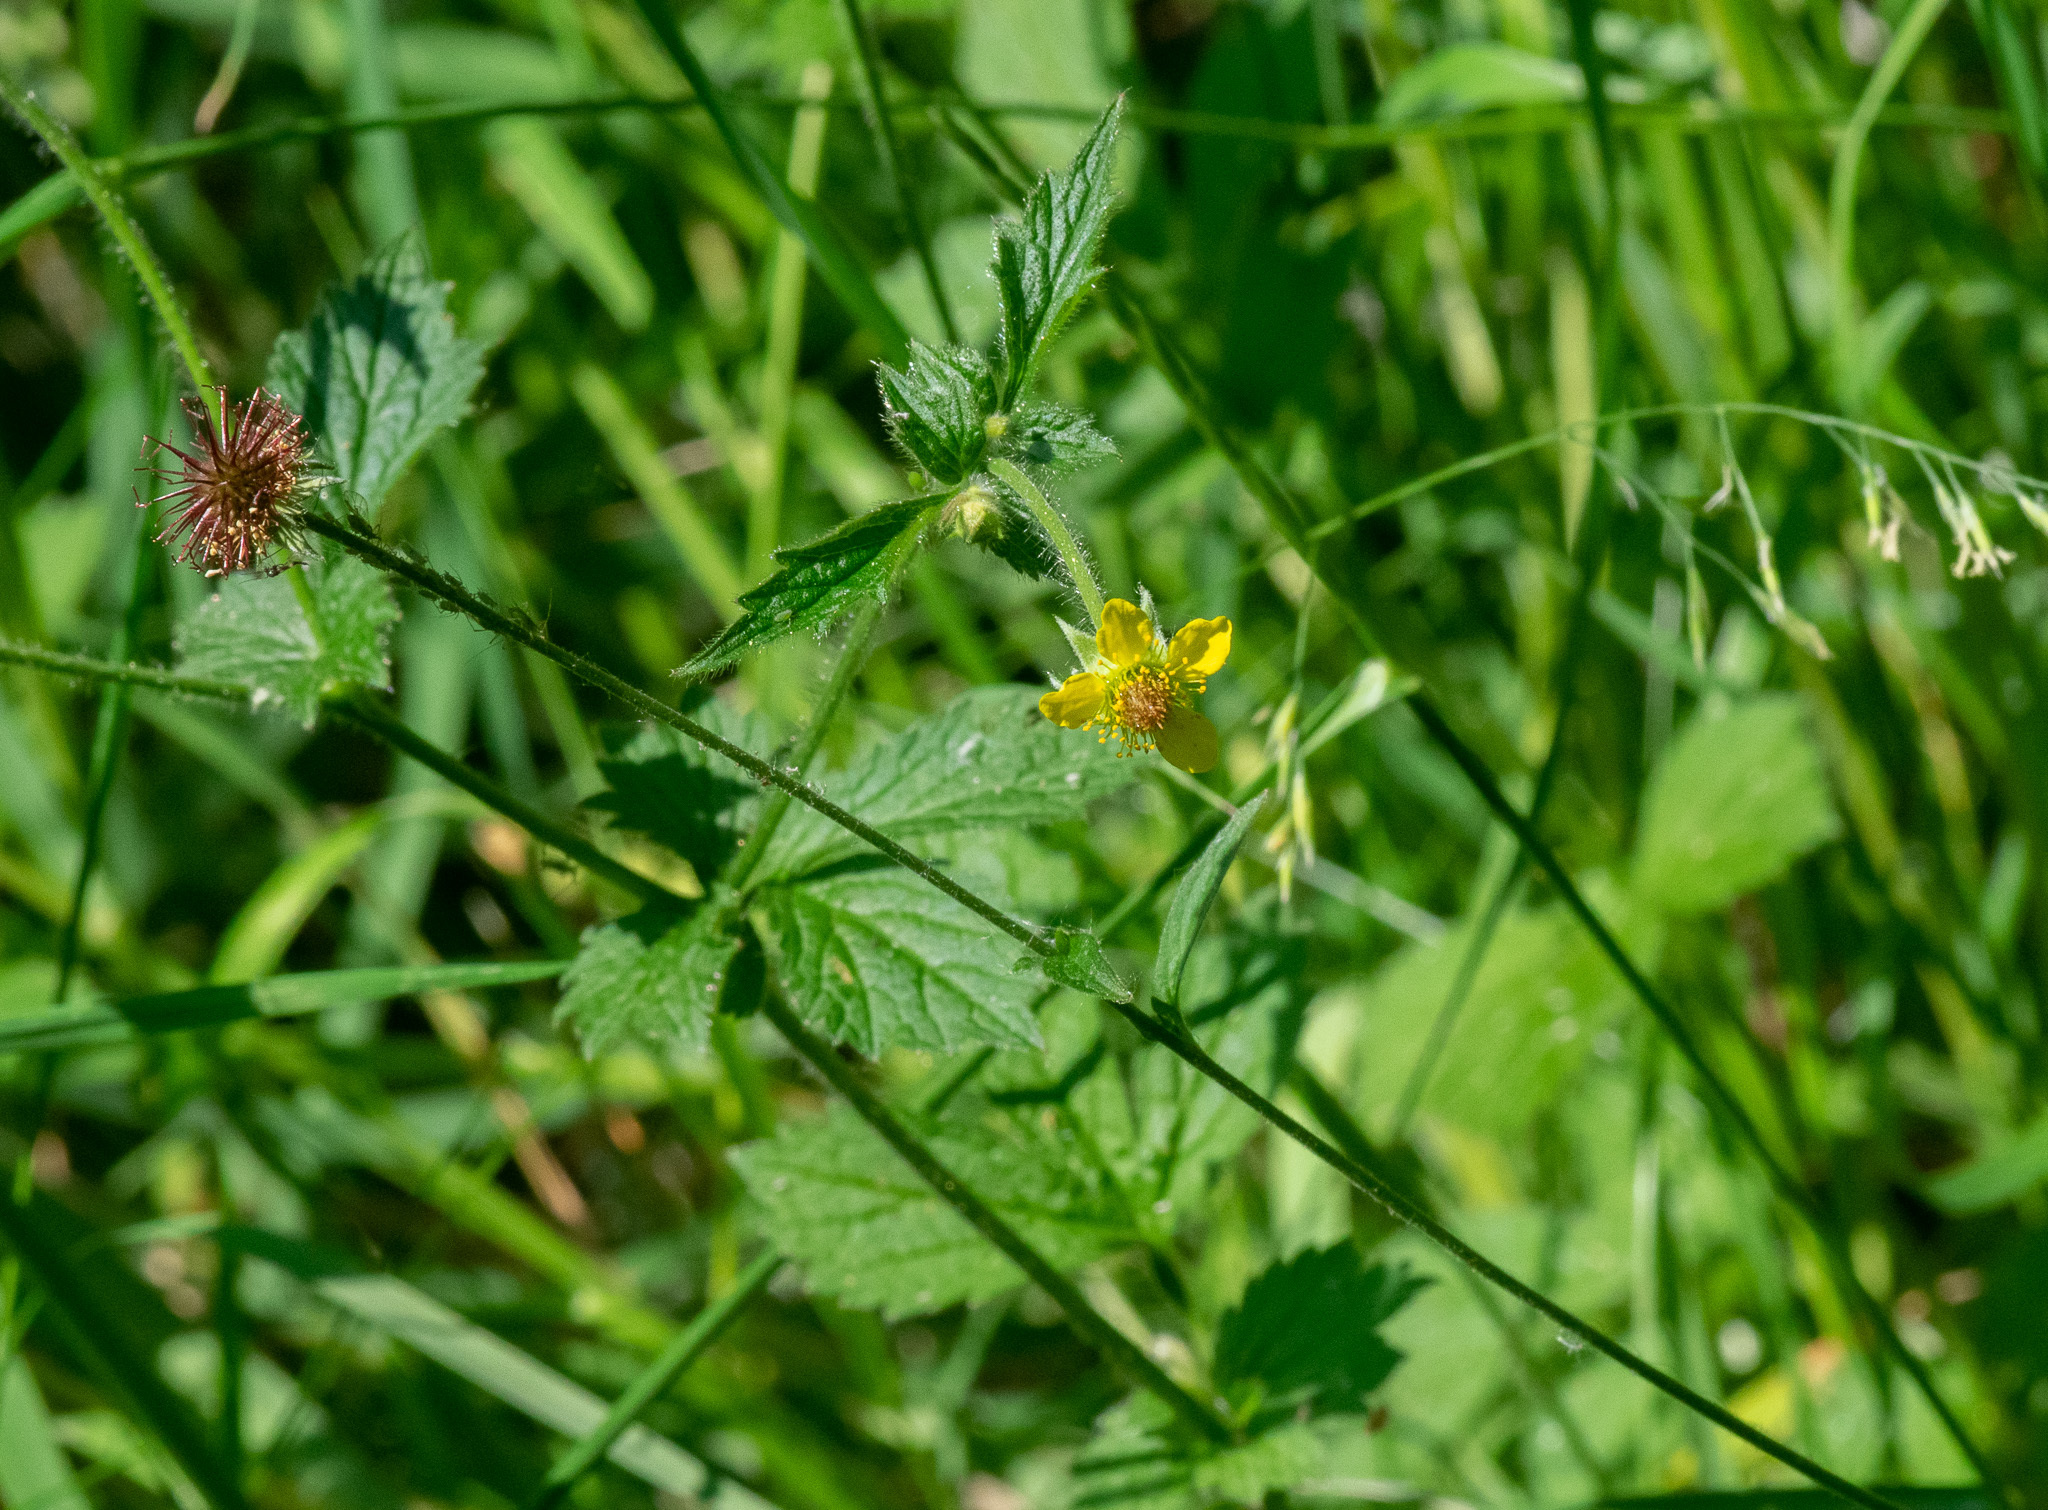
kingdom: Plantae
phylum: Tracheophyta
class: Magnoliopsida
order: Rosales
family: Rosaceae
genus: Geum
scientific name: Geum urbanum
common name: Wood avens
